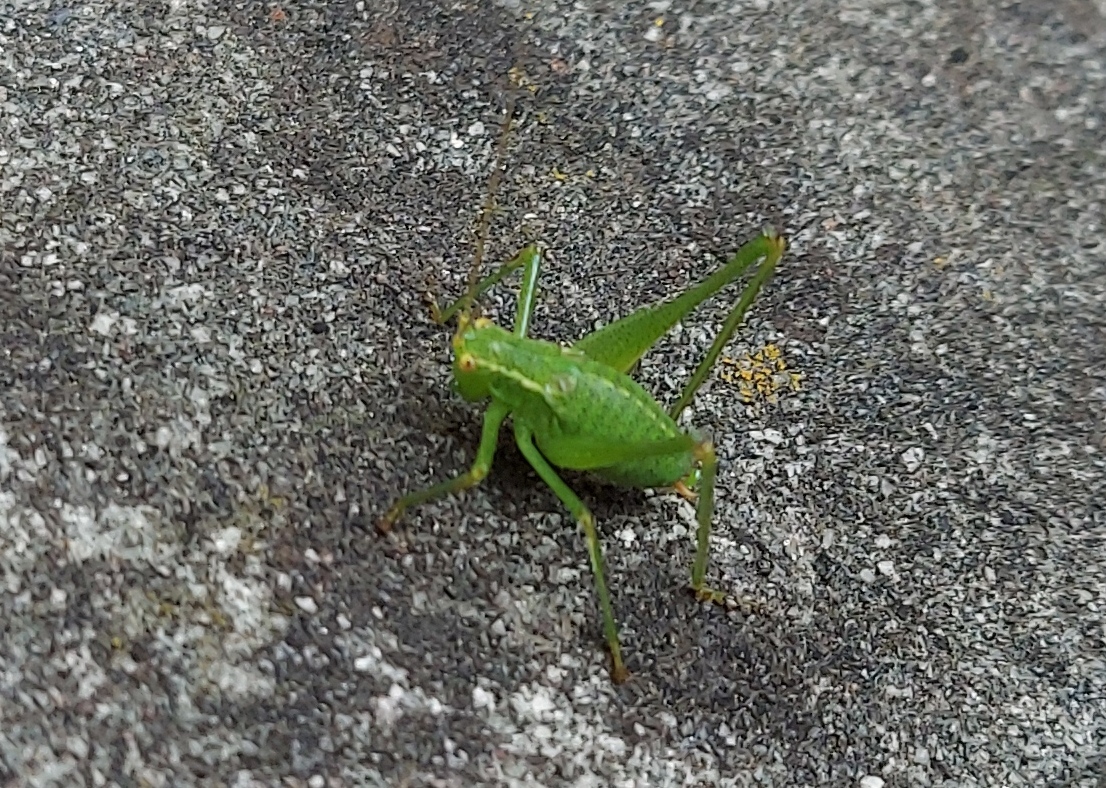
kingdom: Animalia
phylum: Arthropoda
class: Insecta
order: Orthoptera
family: Tettigoniidae
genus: Leptophyes
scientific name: Leptophyes punctatissima
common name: Speckled bush-cricket
